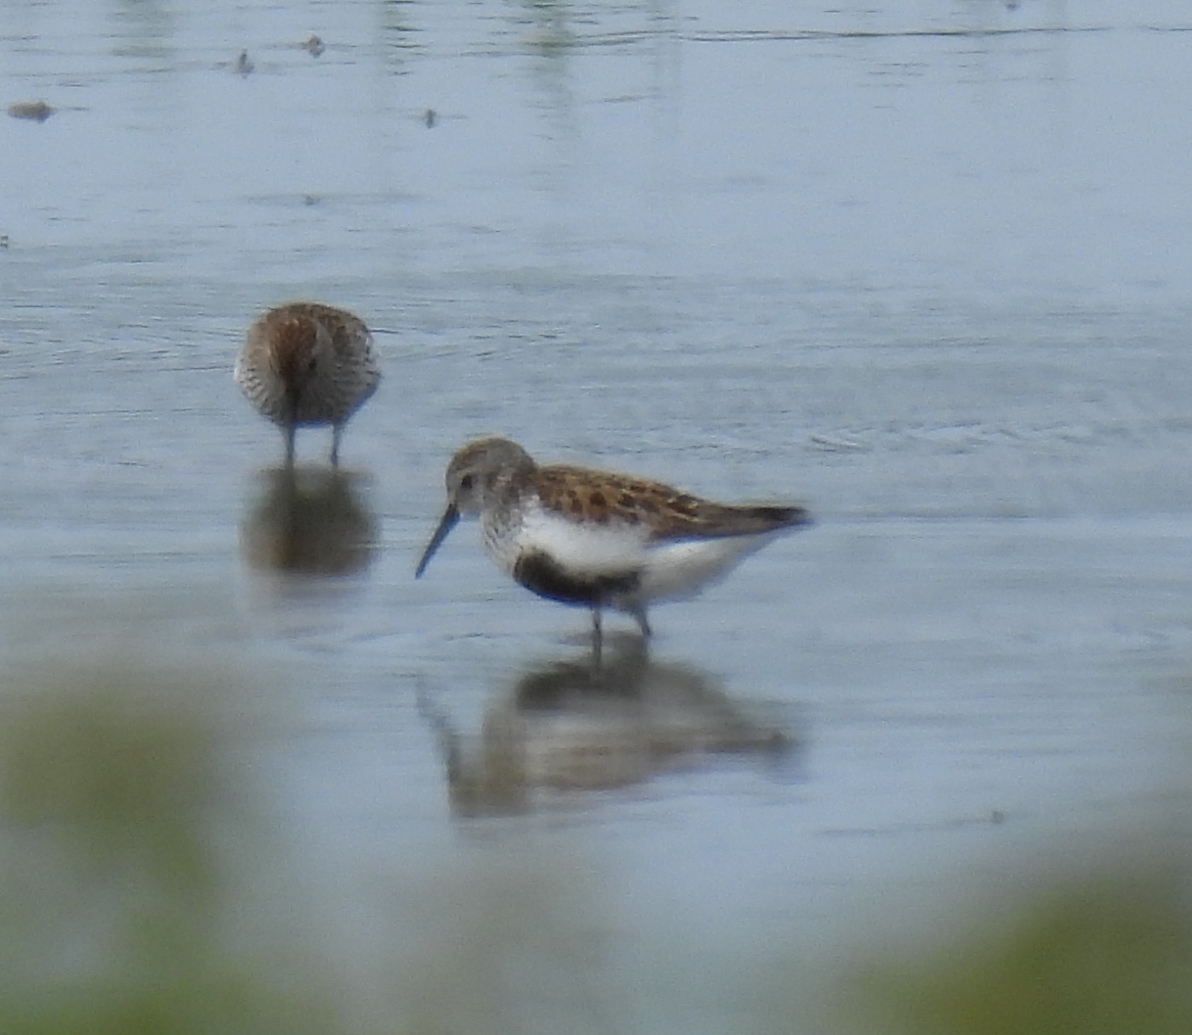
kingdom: Animalia
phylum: Chordata
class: Aves
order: Charadriiformes
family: Scolopacidae
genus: Calidris
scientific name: Calidris alpina
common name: Dunlin
